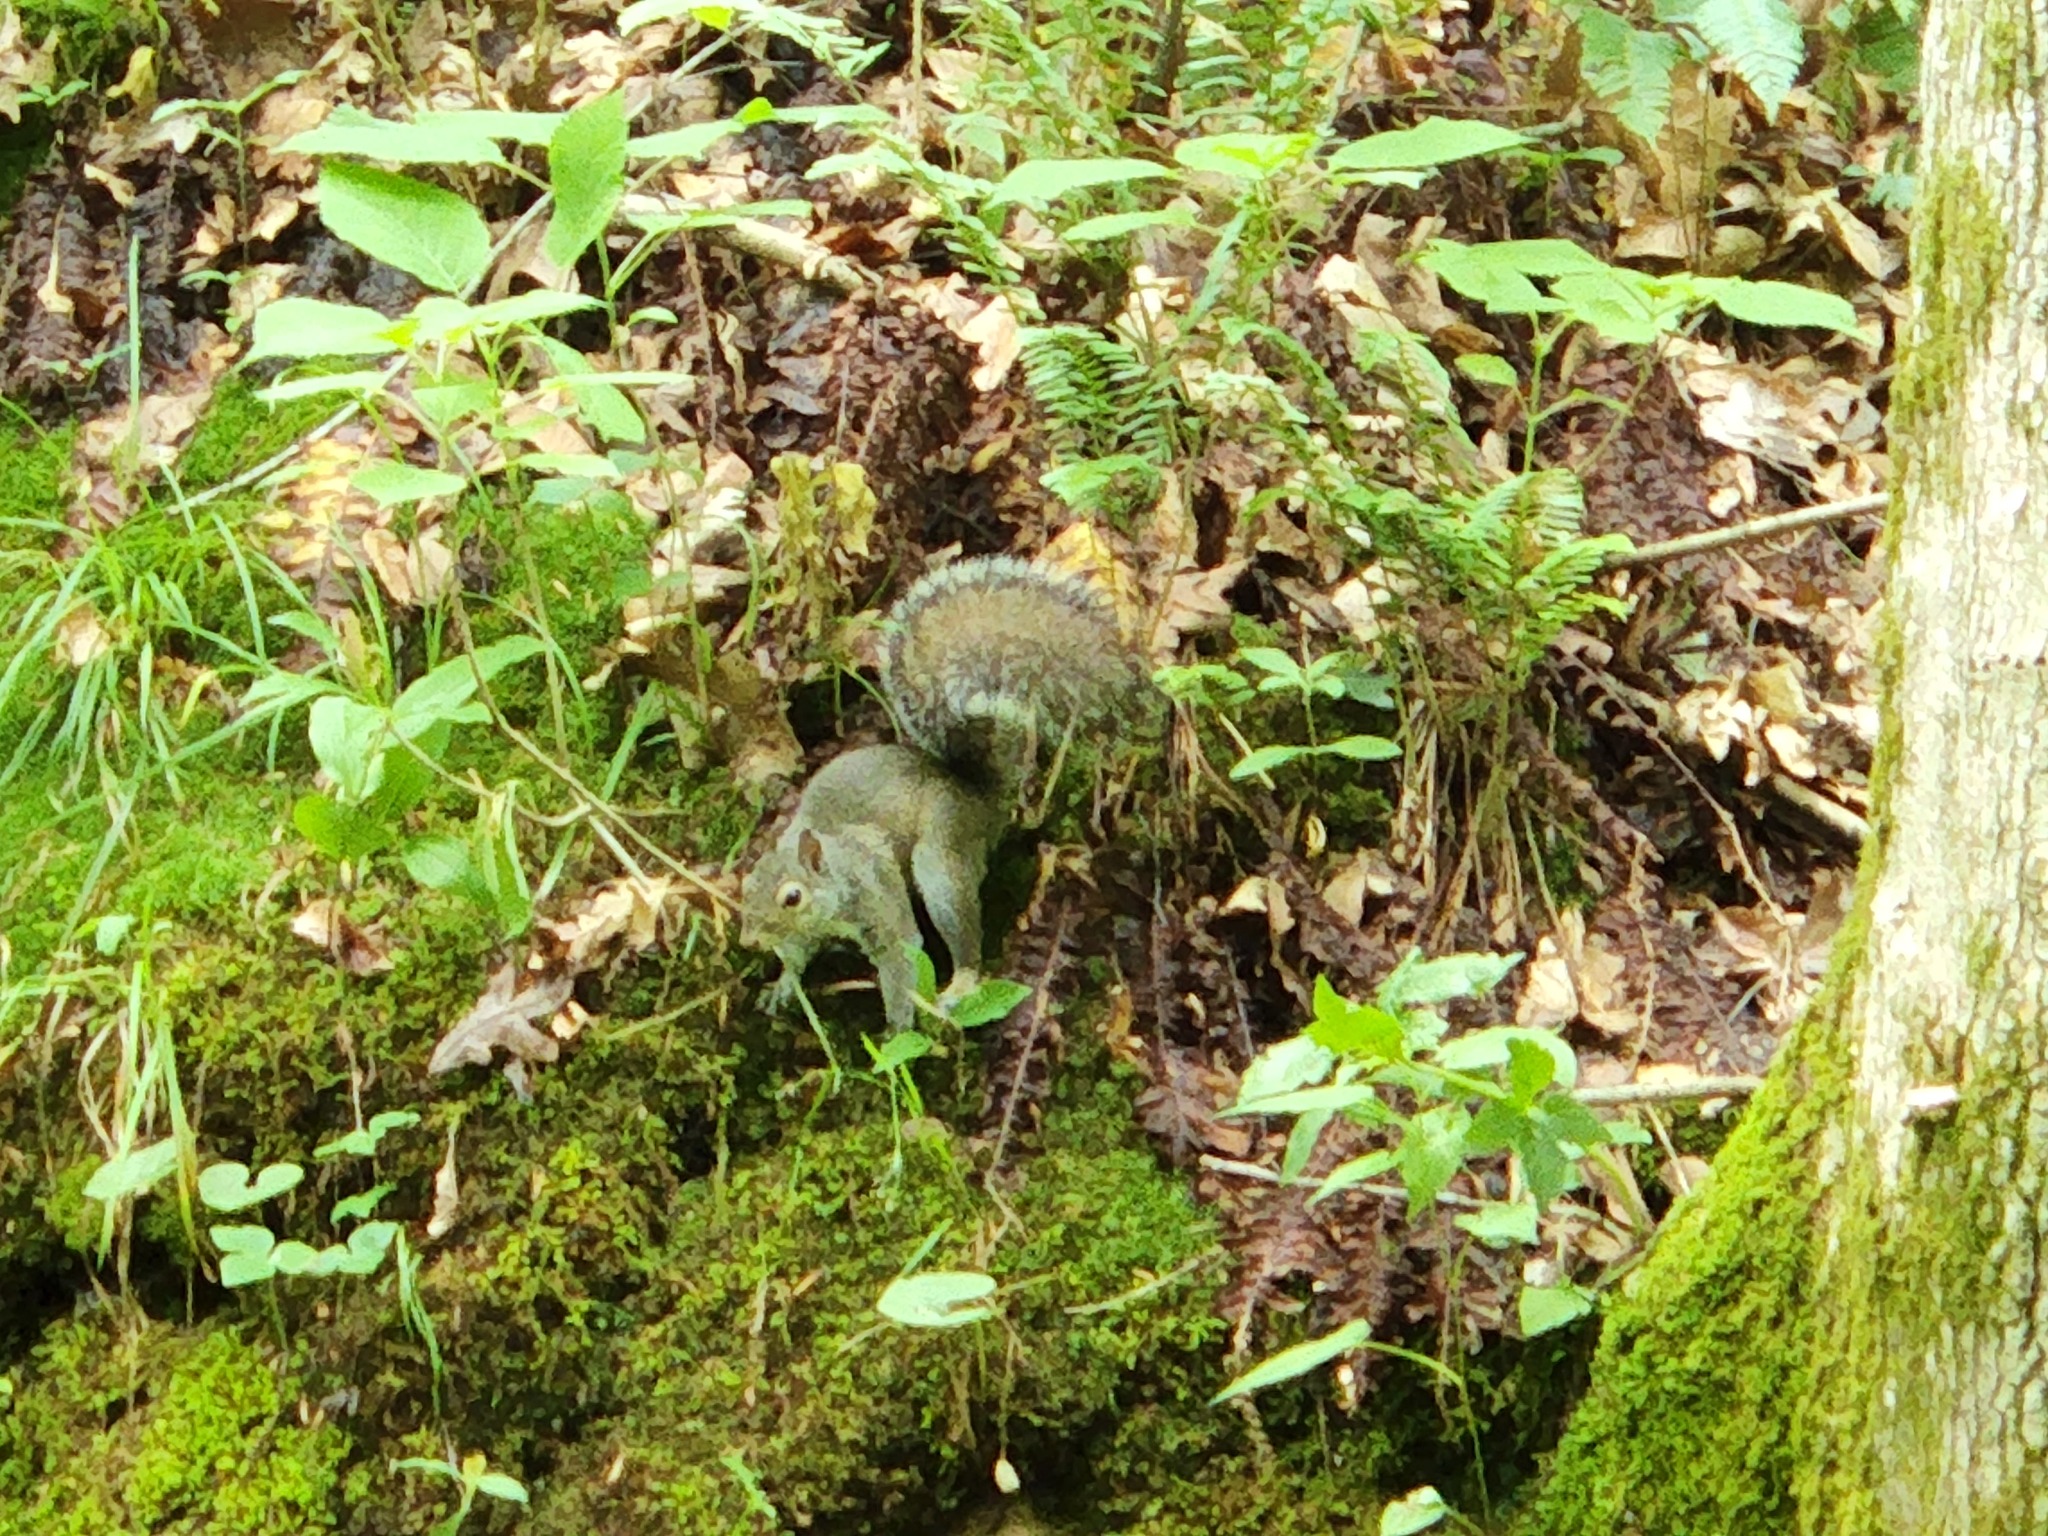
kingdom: Animalia
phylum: Chordata
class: Mammalia
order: Rodentia
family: Sciuridae
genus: Sciurus
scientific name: Sciurus carolinensis
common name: Eastern gray squirrel
